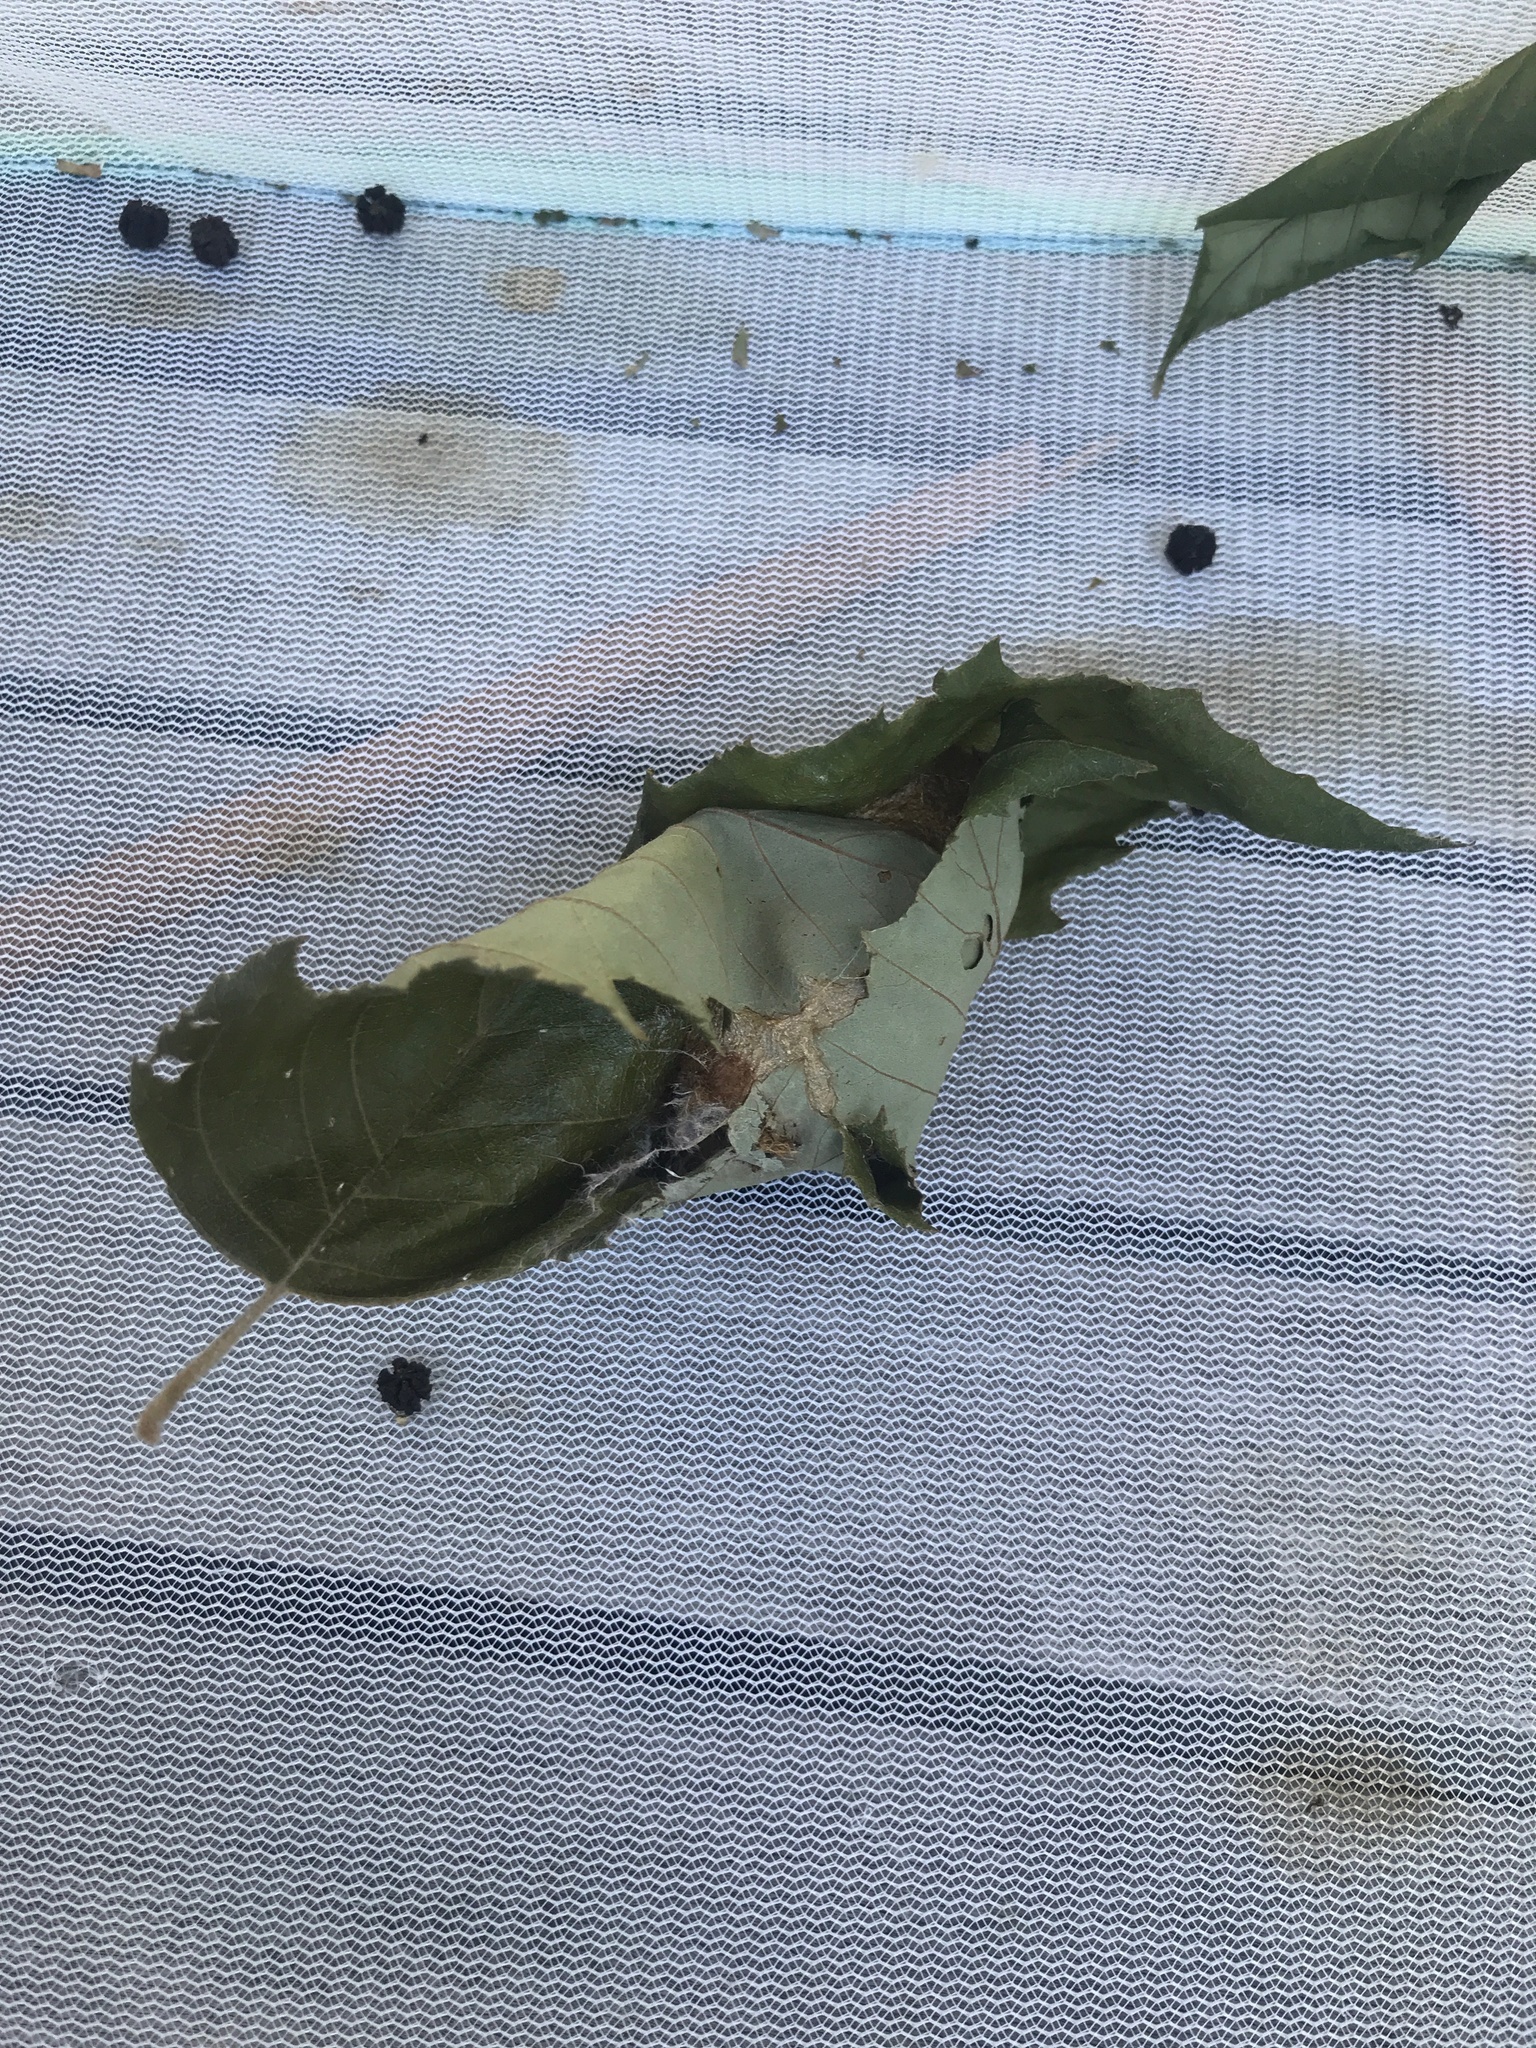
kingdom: Animalia
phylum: Arthropoda
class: Insecta
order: Lepidoptera
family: Saturniidae
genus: Actias
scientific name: Actias luna
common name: Luna moth
